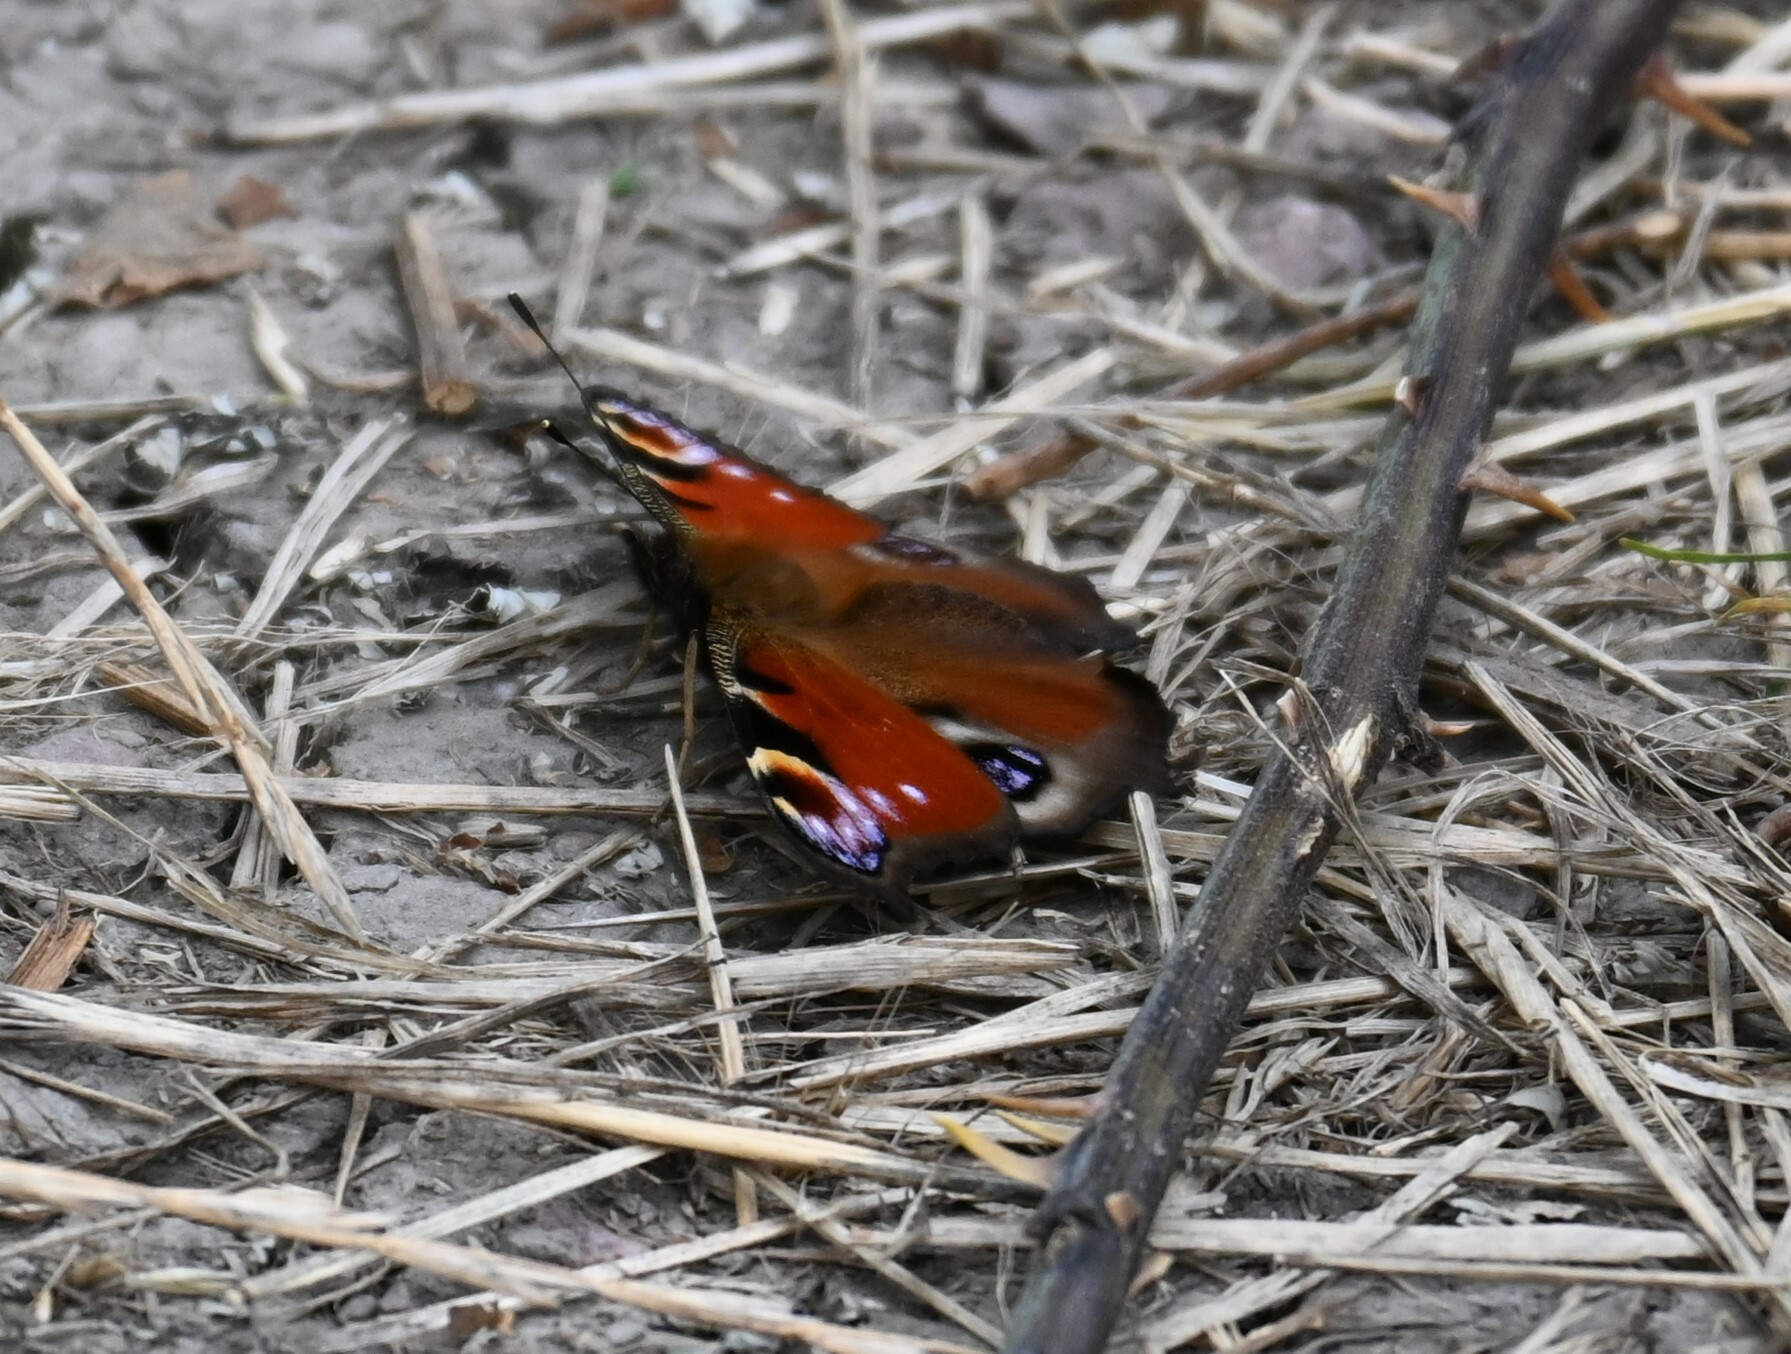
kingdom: Animalia
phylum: Arthropoda
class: Insecta
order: Lepidoptera
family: Nymphalidae
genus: Aglais
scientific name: Aglais io
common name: Peacock
